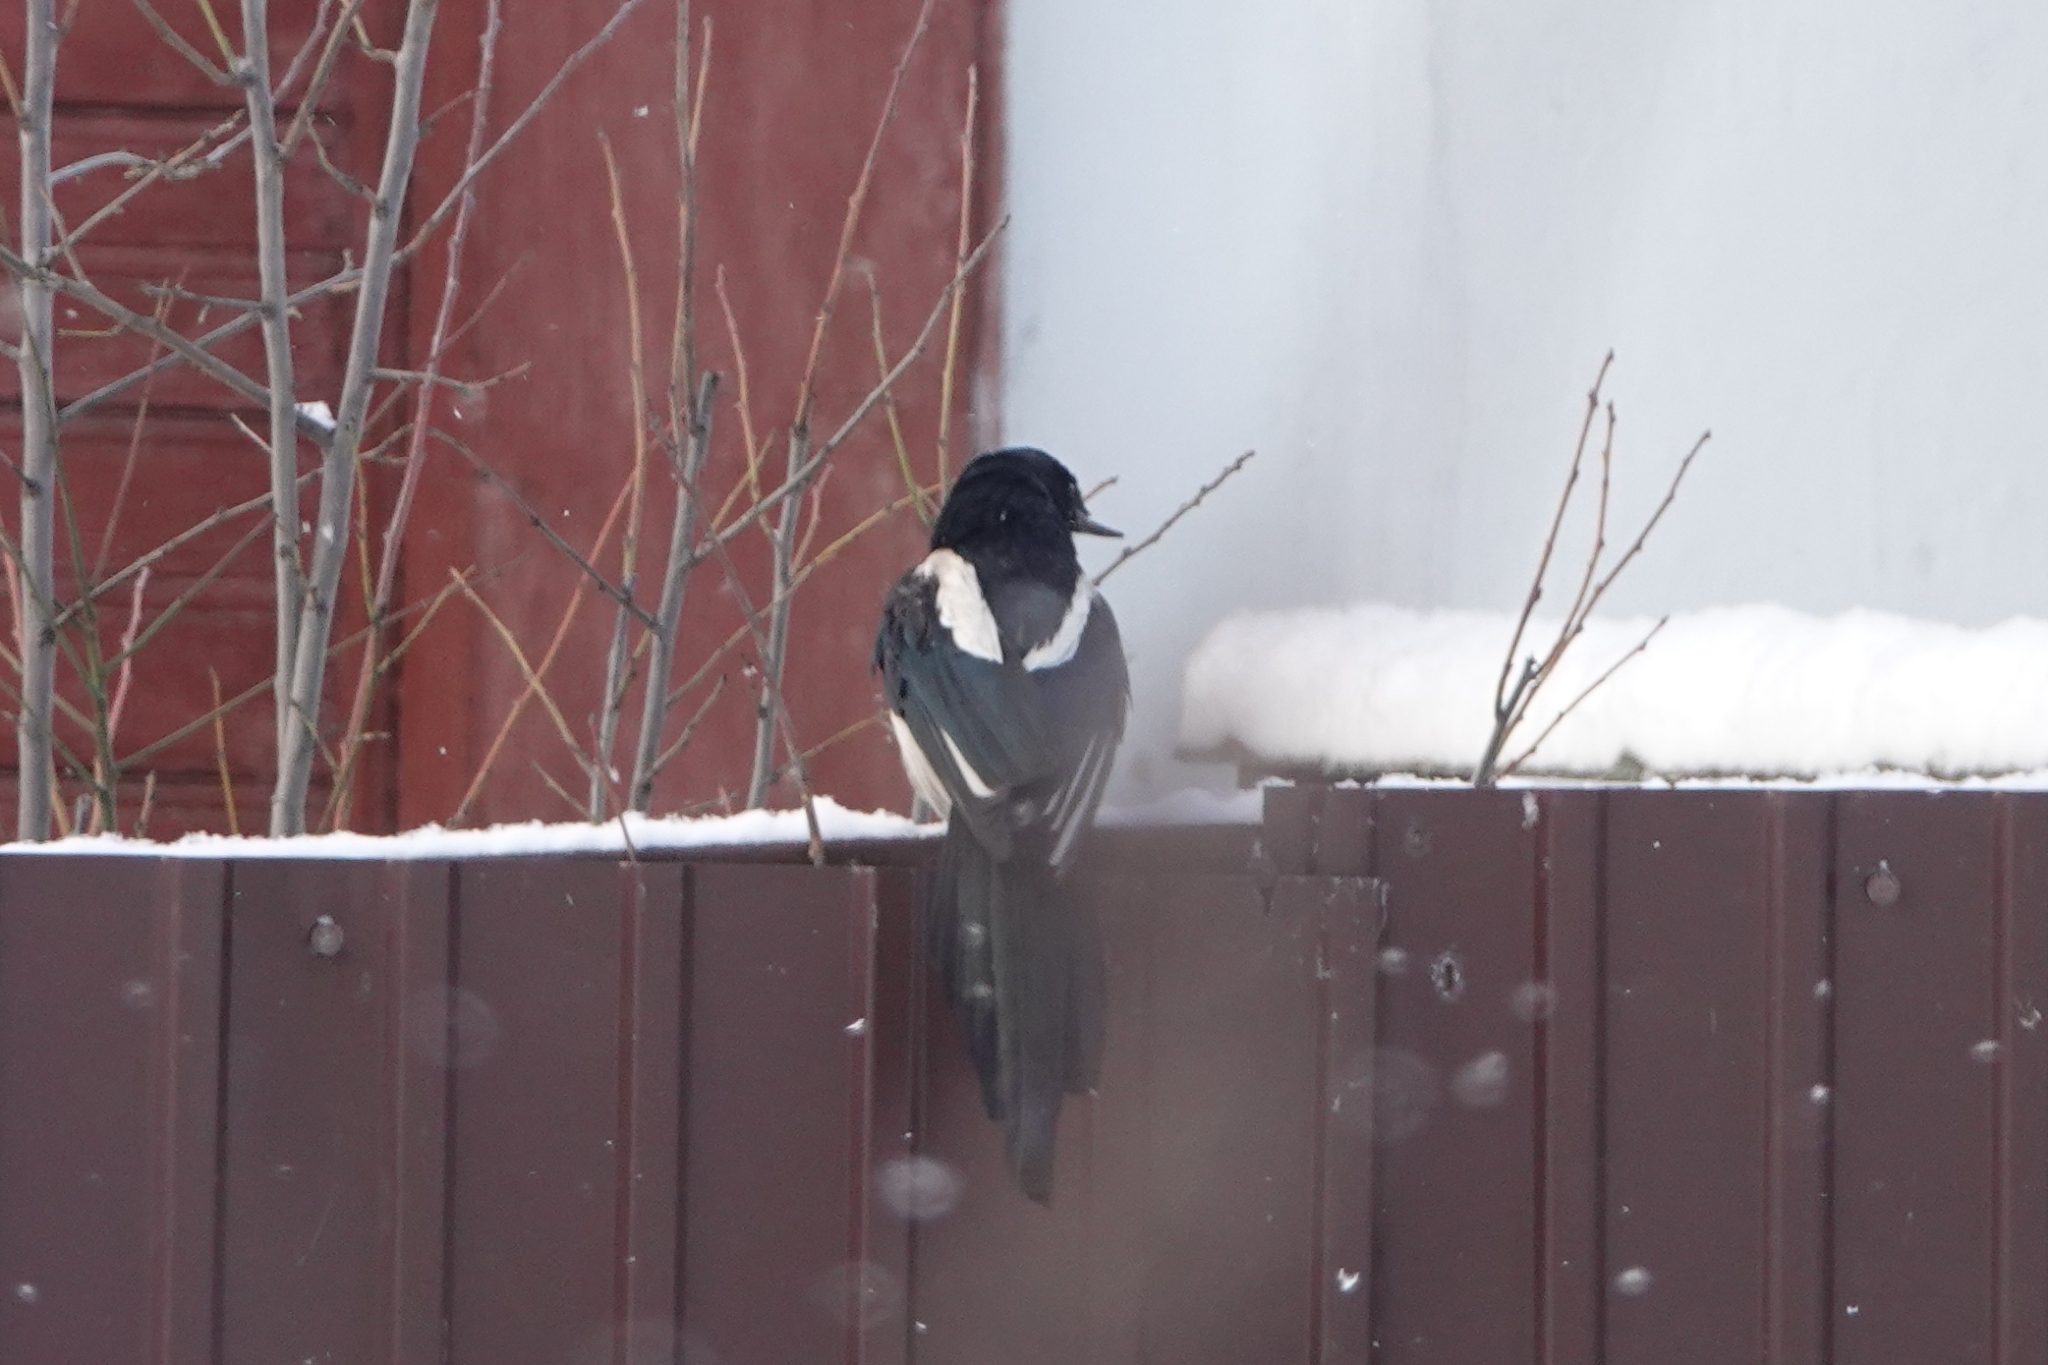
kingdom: Animalia
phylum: Chordata
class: Aves
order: Passeriformes
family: Corvidae
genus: Pica
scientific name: Pica pica
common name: Eurasian magpie
